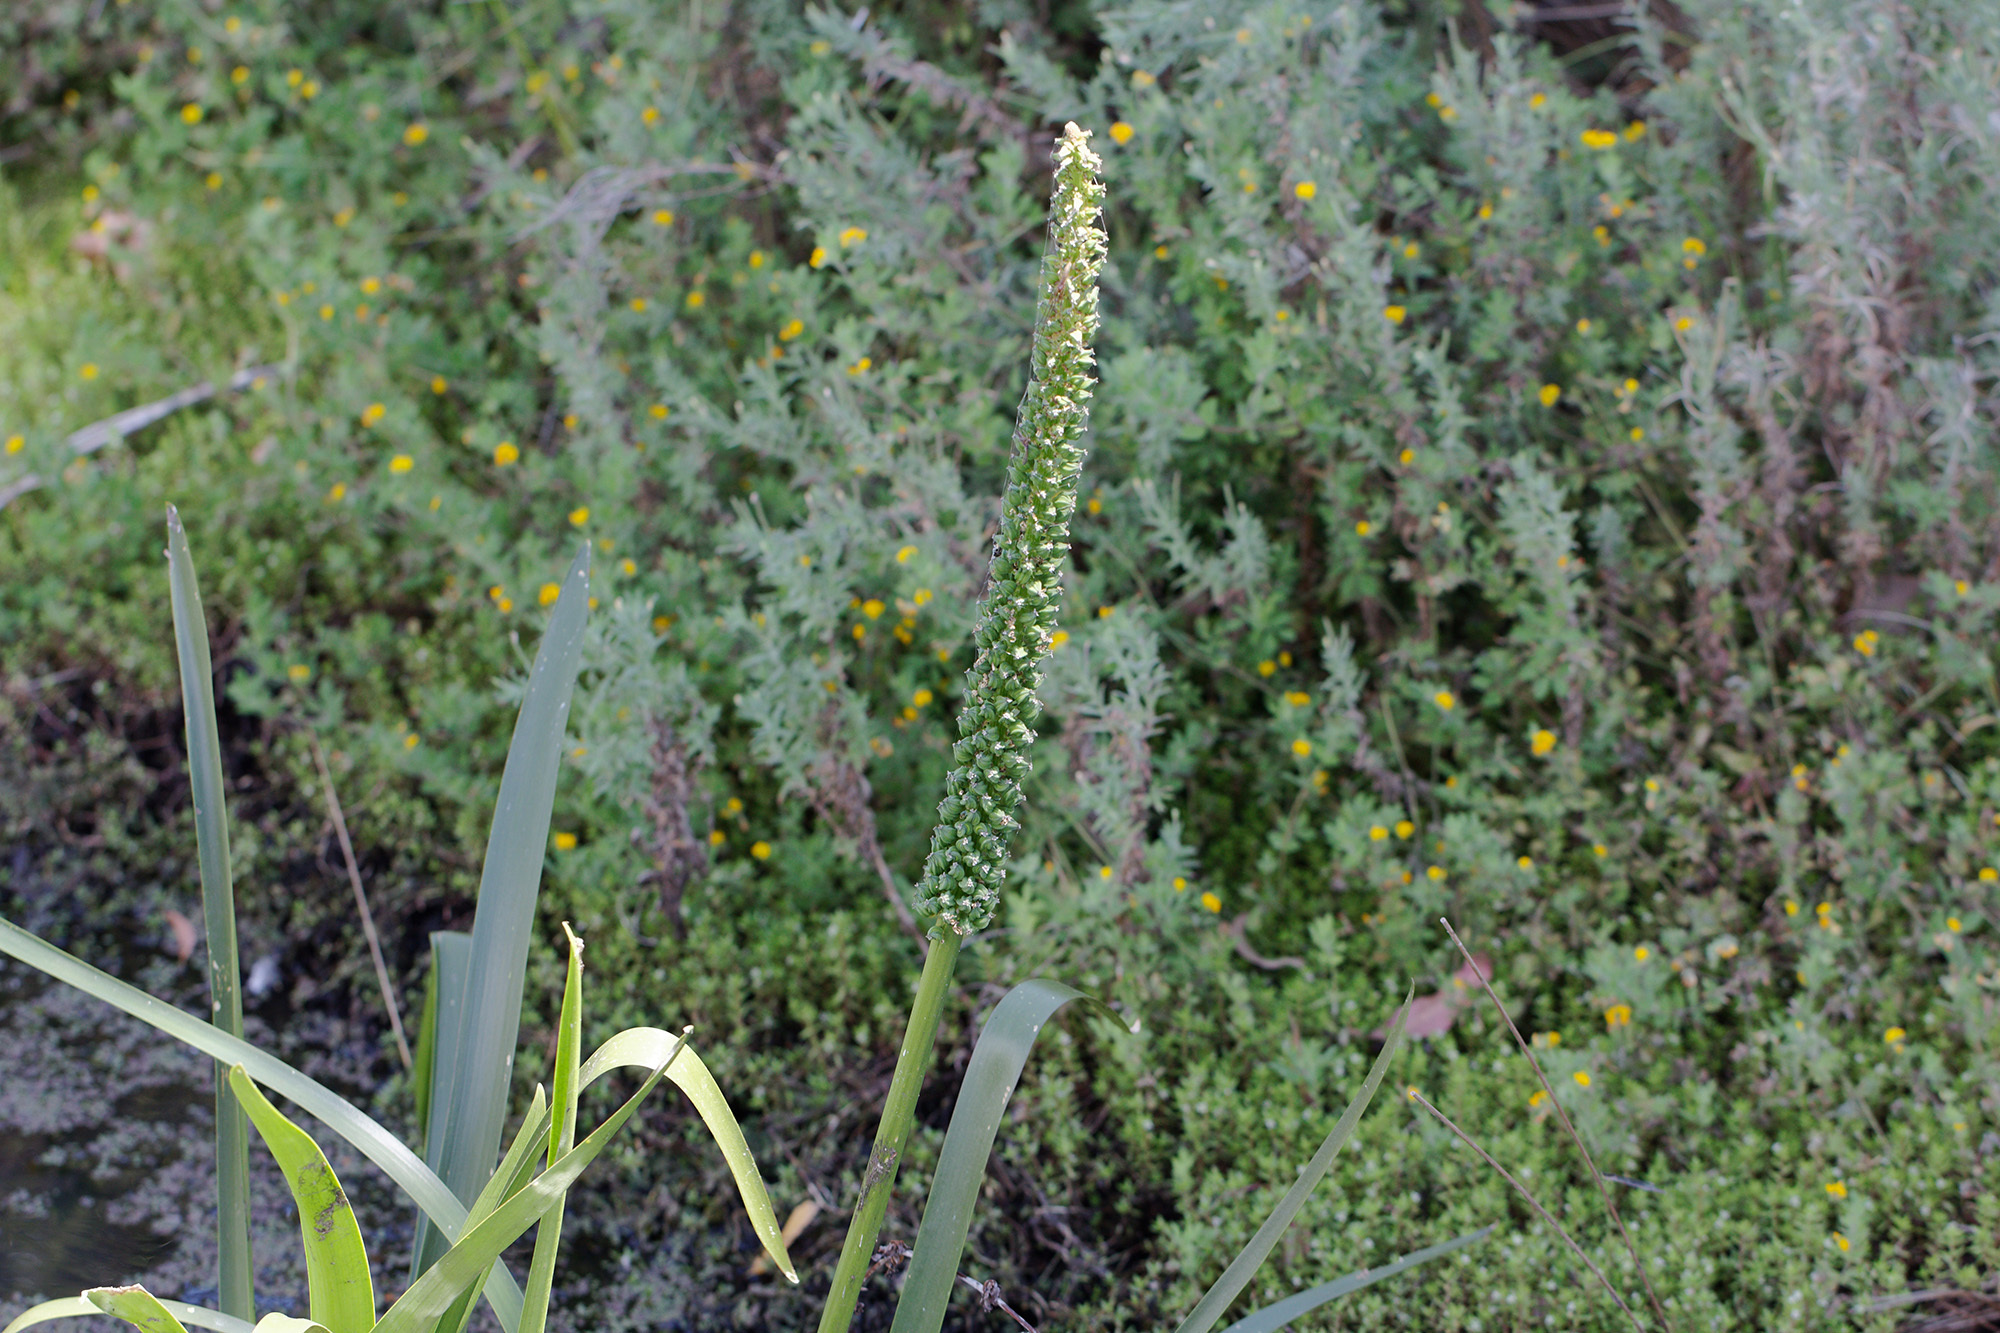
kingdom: Plantae
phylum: Tracheophyta
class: Liliopsida
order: Alismatales
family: Juncaginaceae
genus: Cycnogeton
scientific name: Cycnogeton procerum
